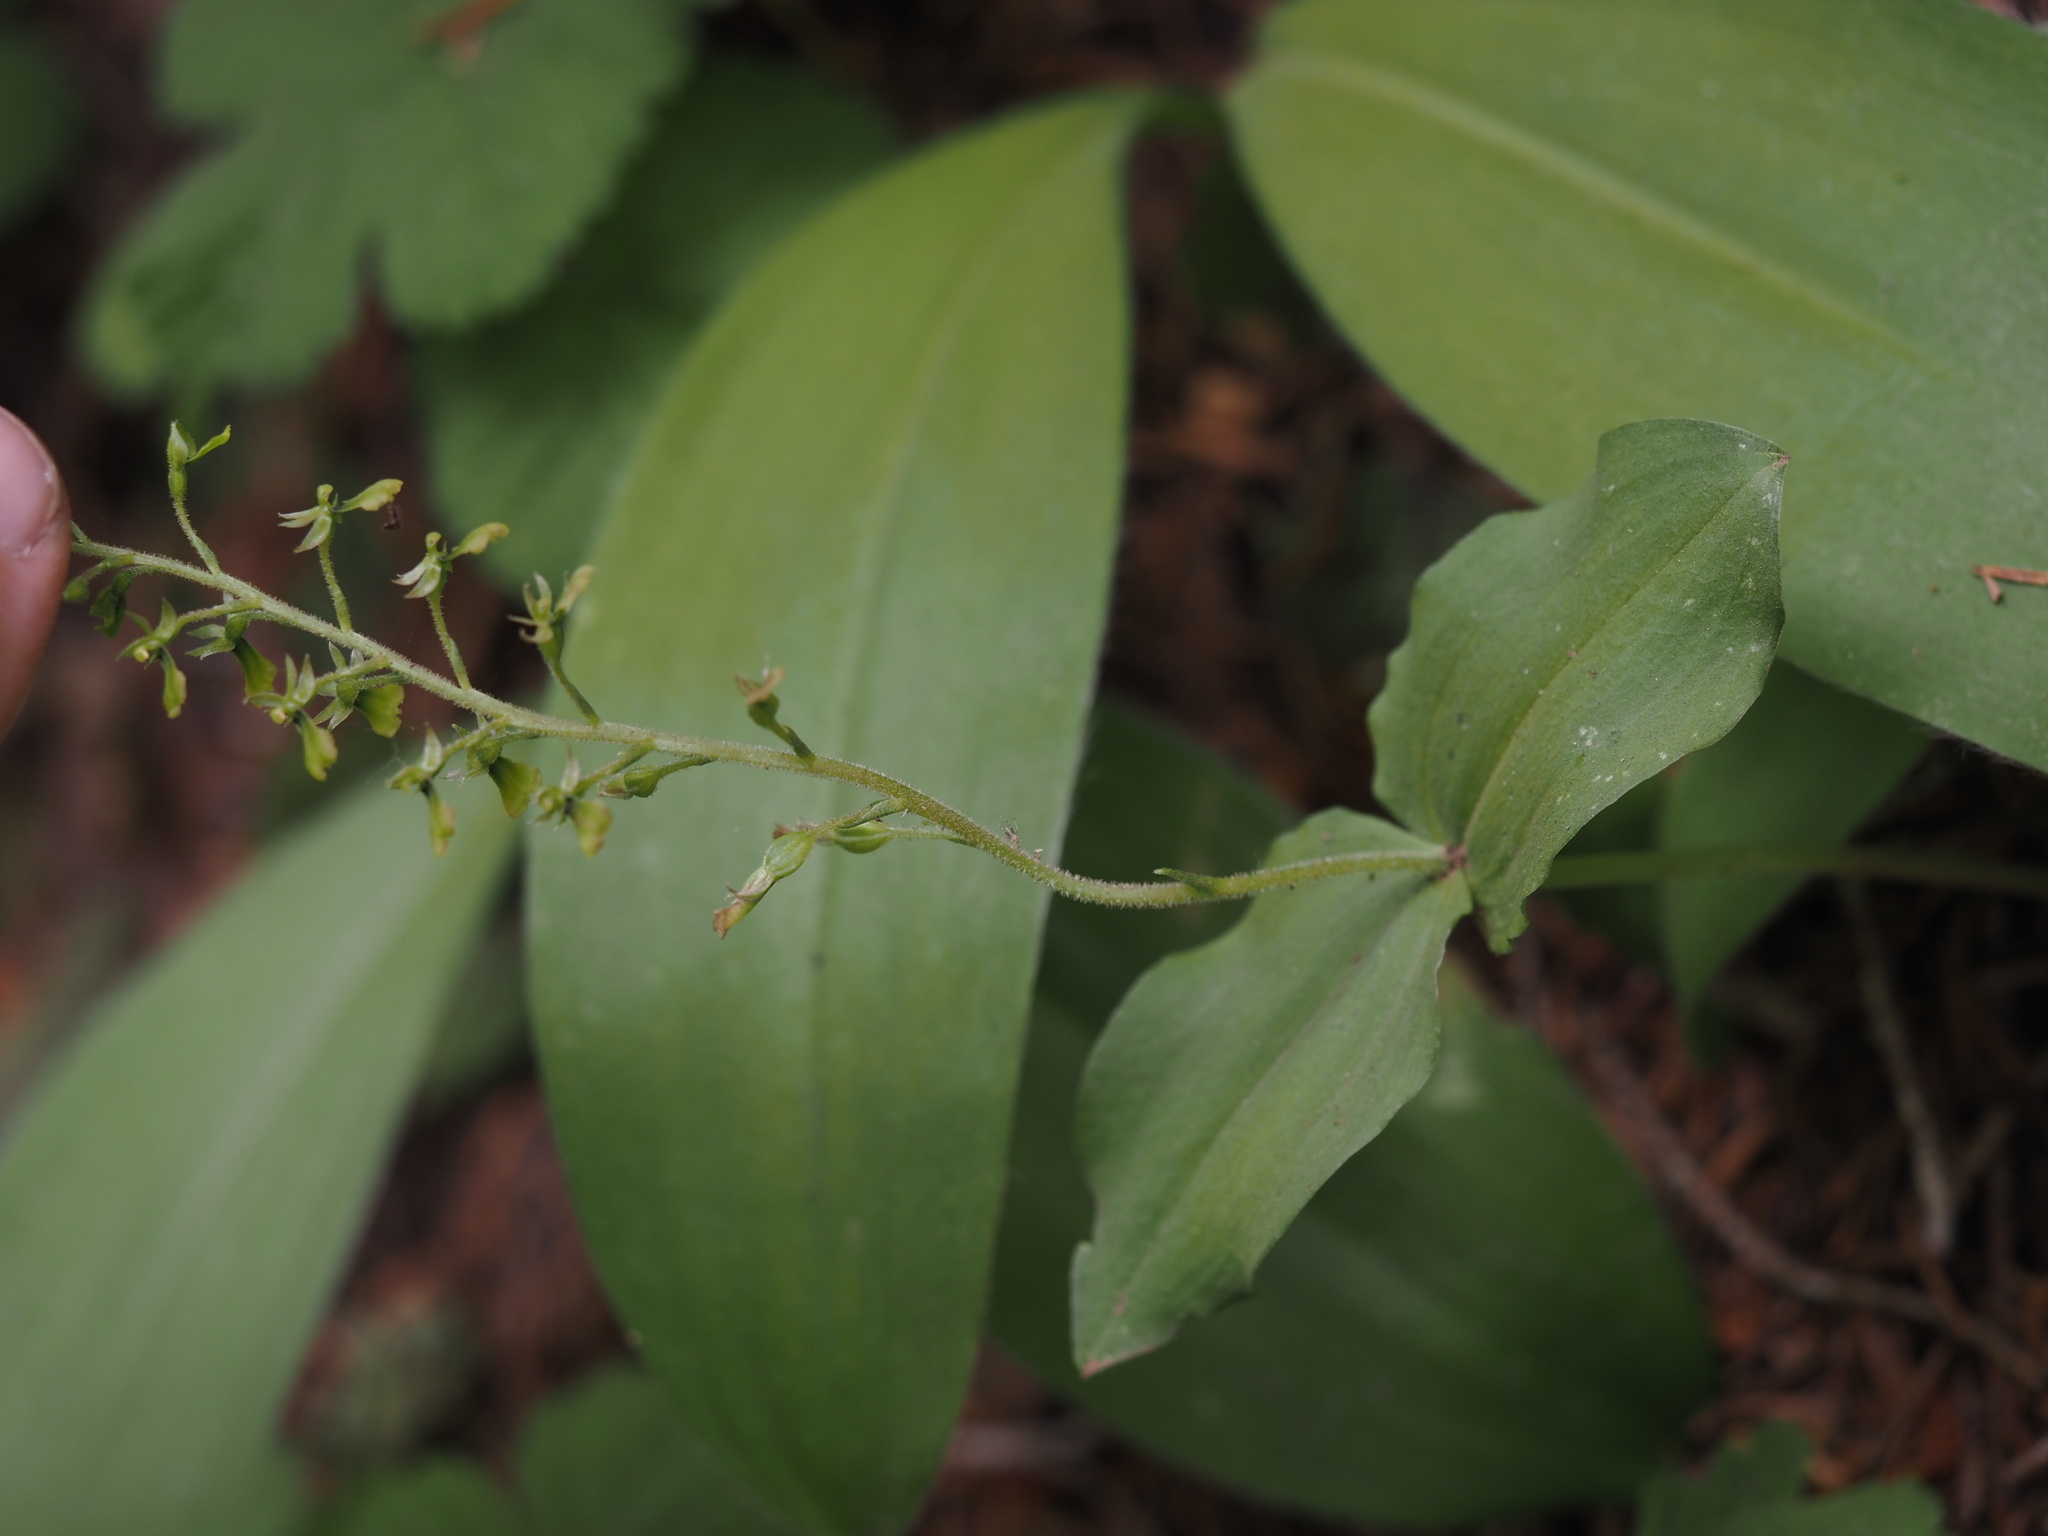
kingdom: Plantae
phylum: Tracheophyta
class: Liliopsida
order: Asparagales
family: Orchidaceae
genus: Neottia
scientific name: Neottia banksiana
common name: Northwestern twayblade
